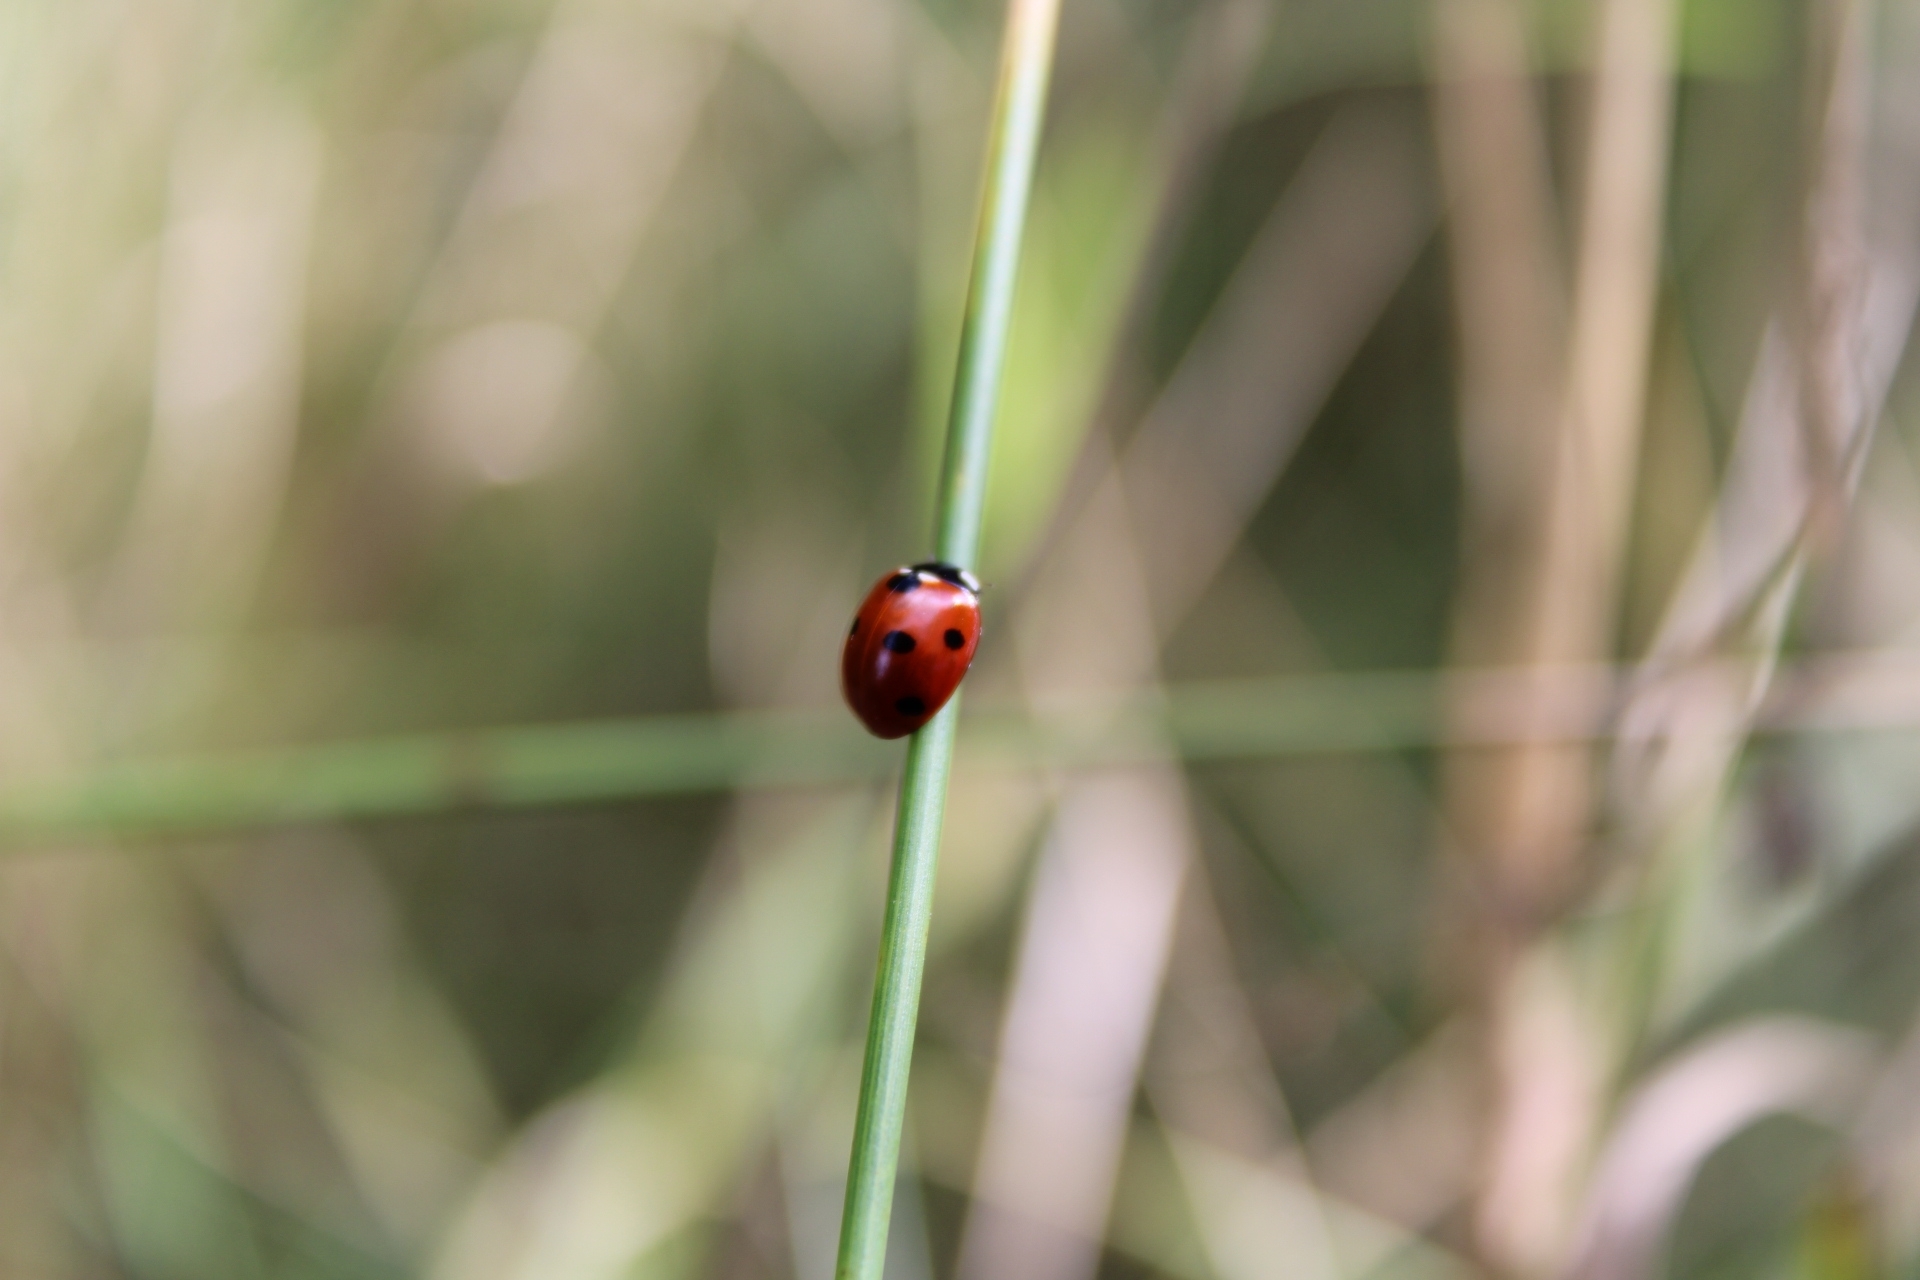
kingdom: Animalia
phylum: Arthropoda
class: Insecta
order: Coleoptera
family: Coccinellidae
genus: Coccinella
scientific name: Coccinella septempunctata
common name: Sevenspotted lady beetle
